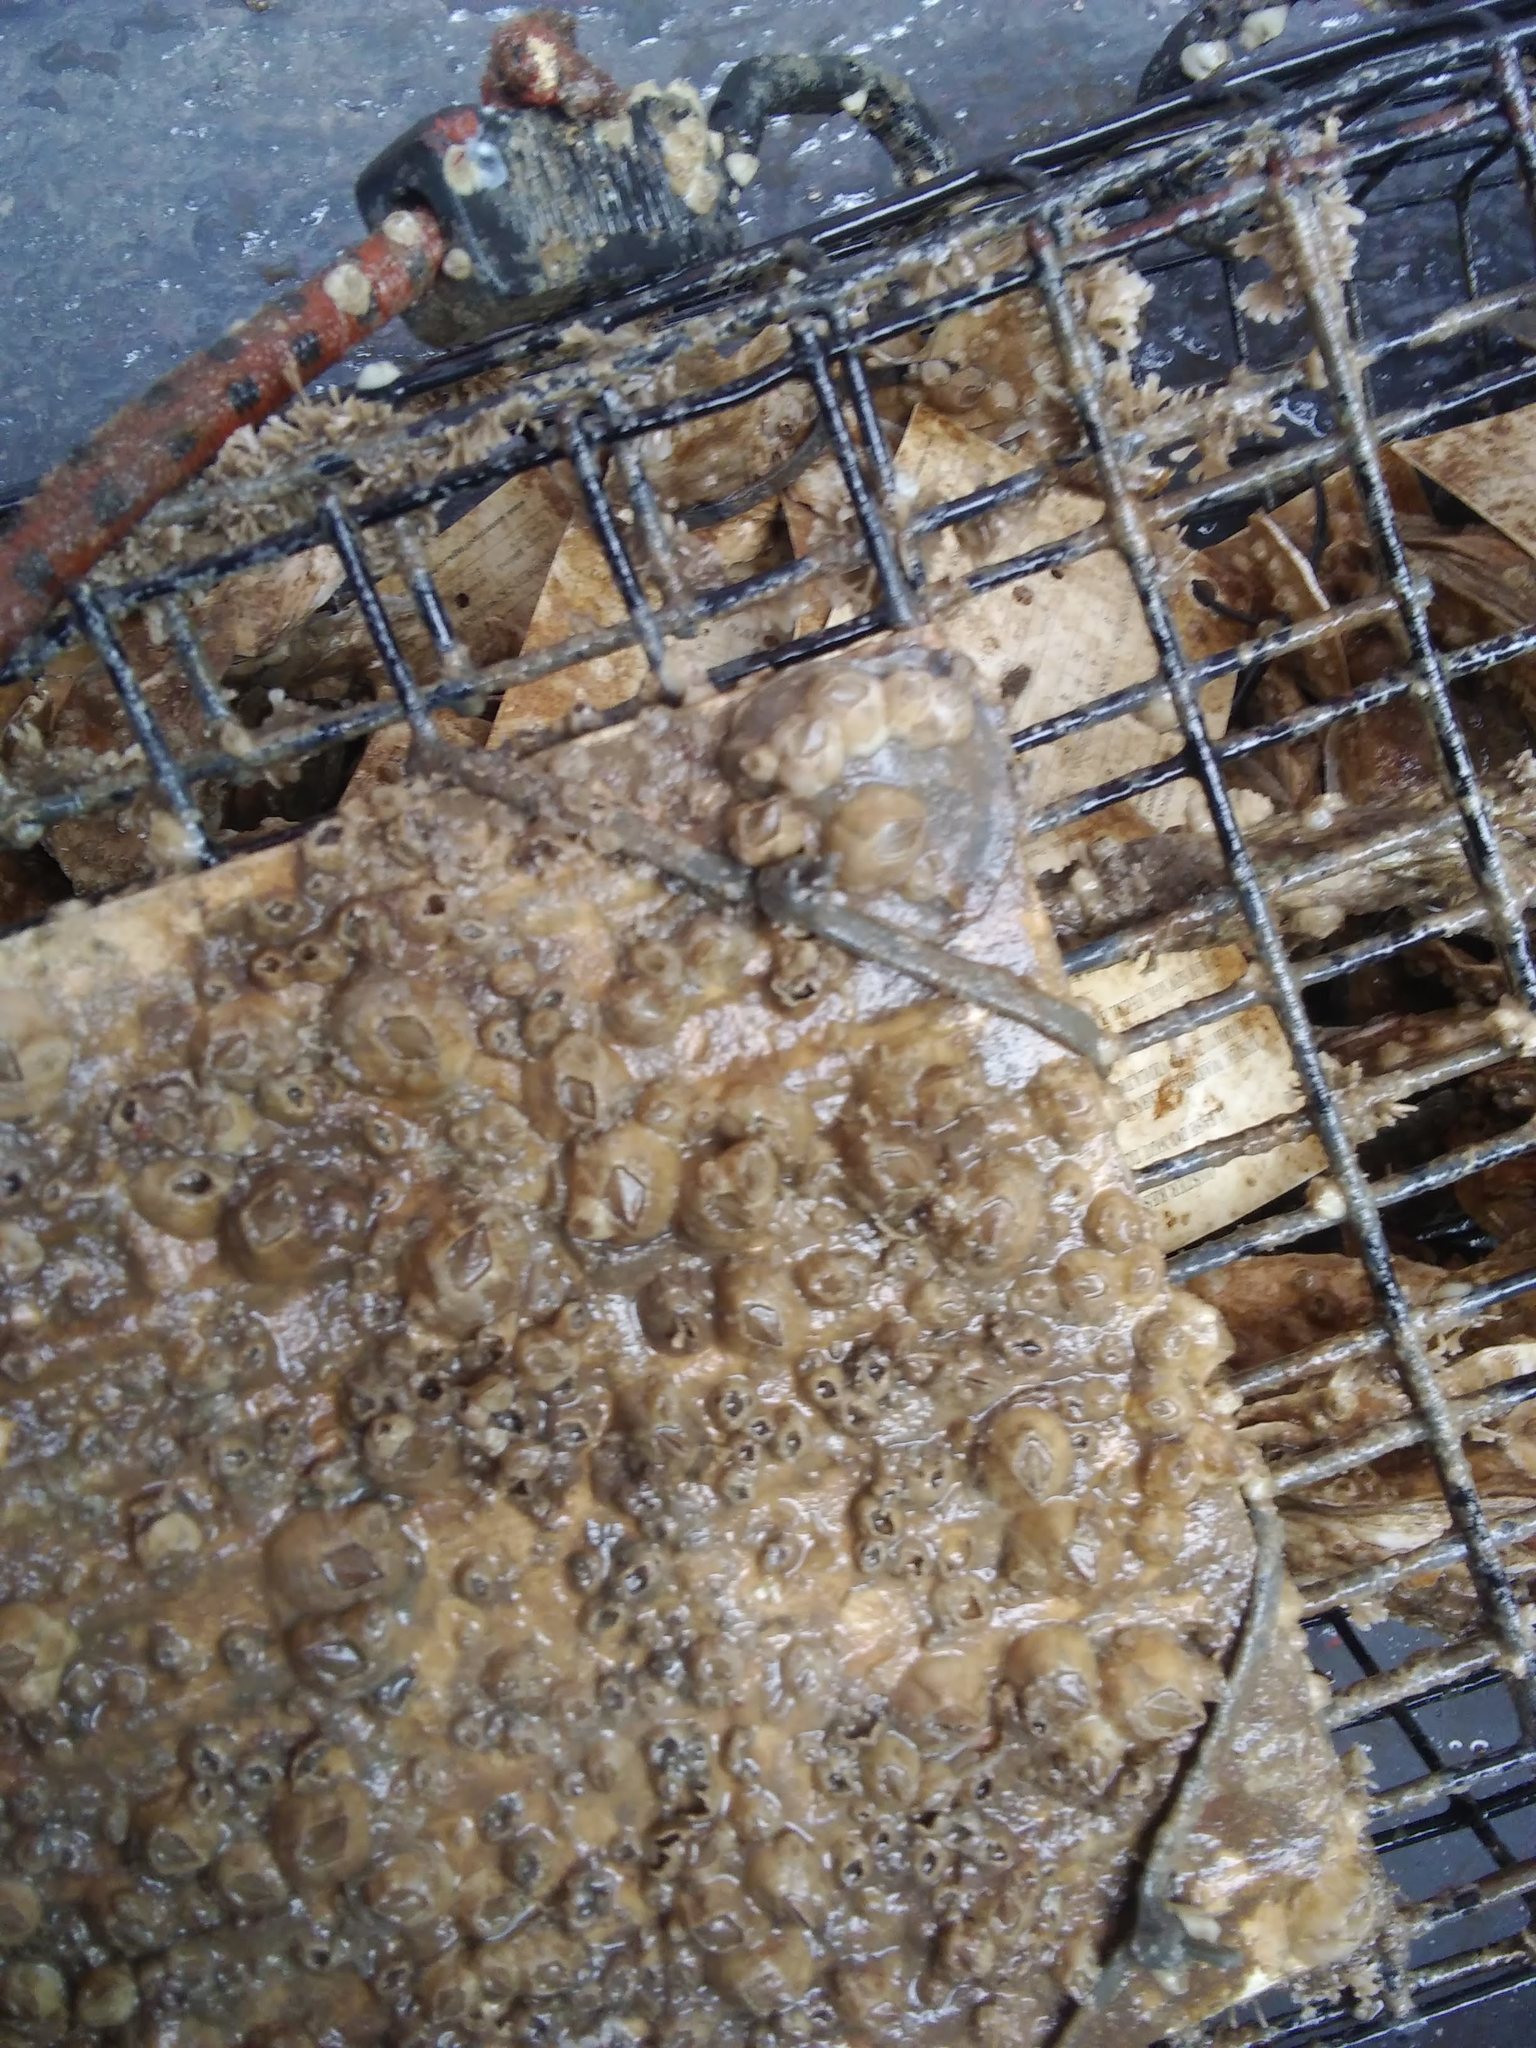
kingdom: Animalia
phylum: Mollusca
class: Bivalvia
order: Ostreida
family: Ostreidae
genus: Crassostrea
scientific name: Crassostrea virginica
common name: American oyster
